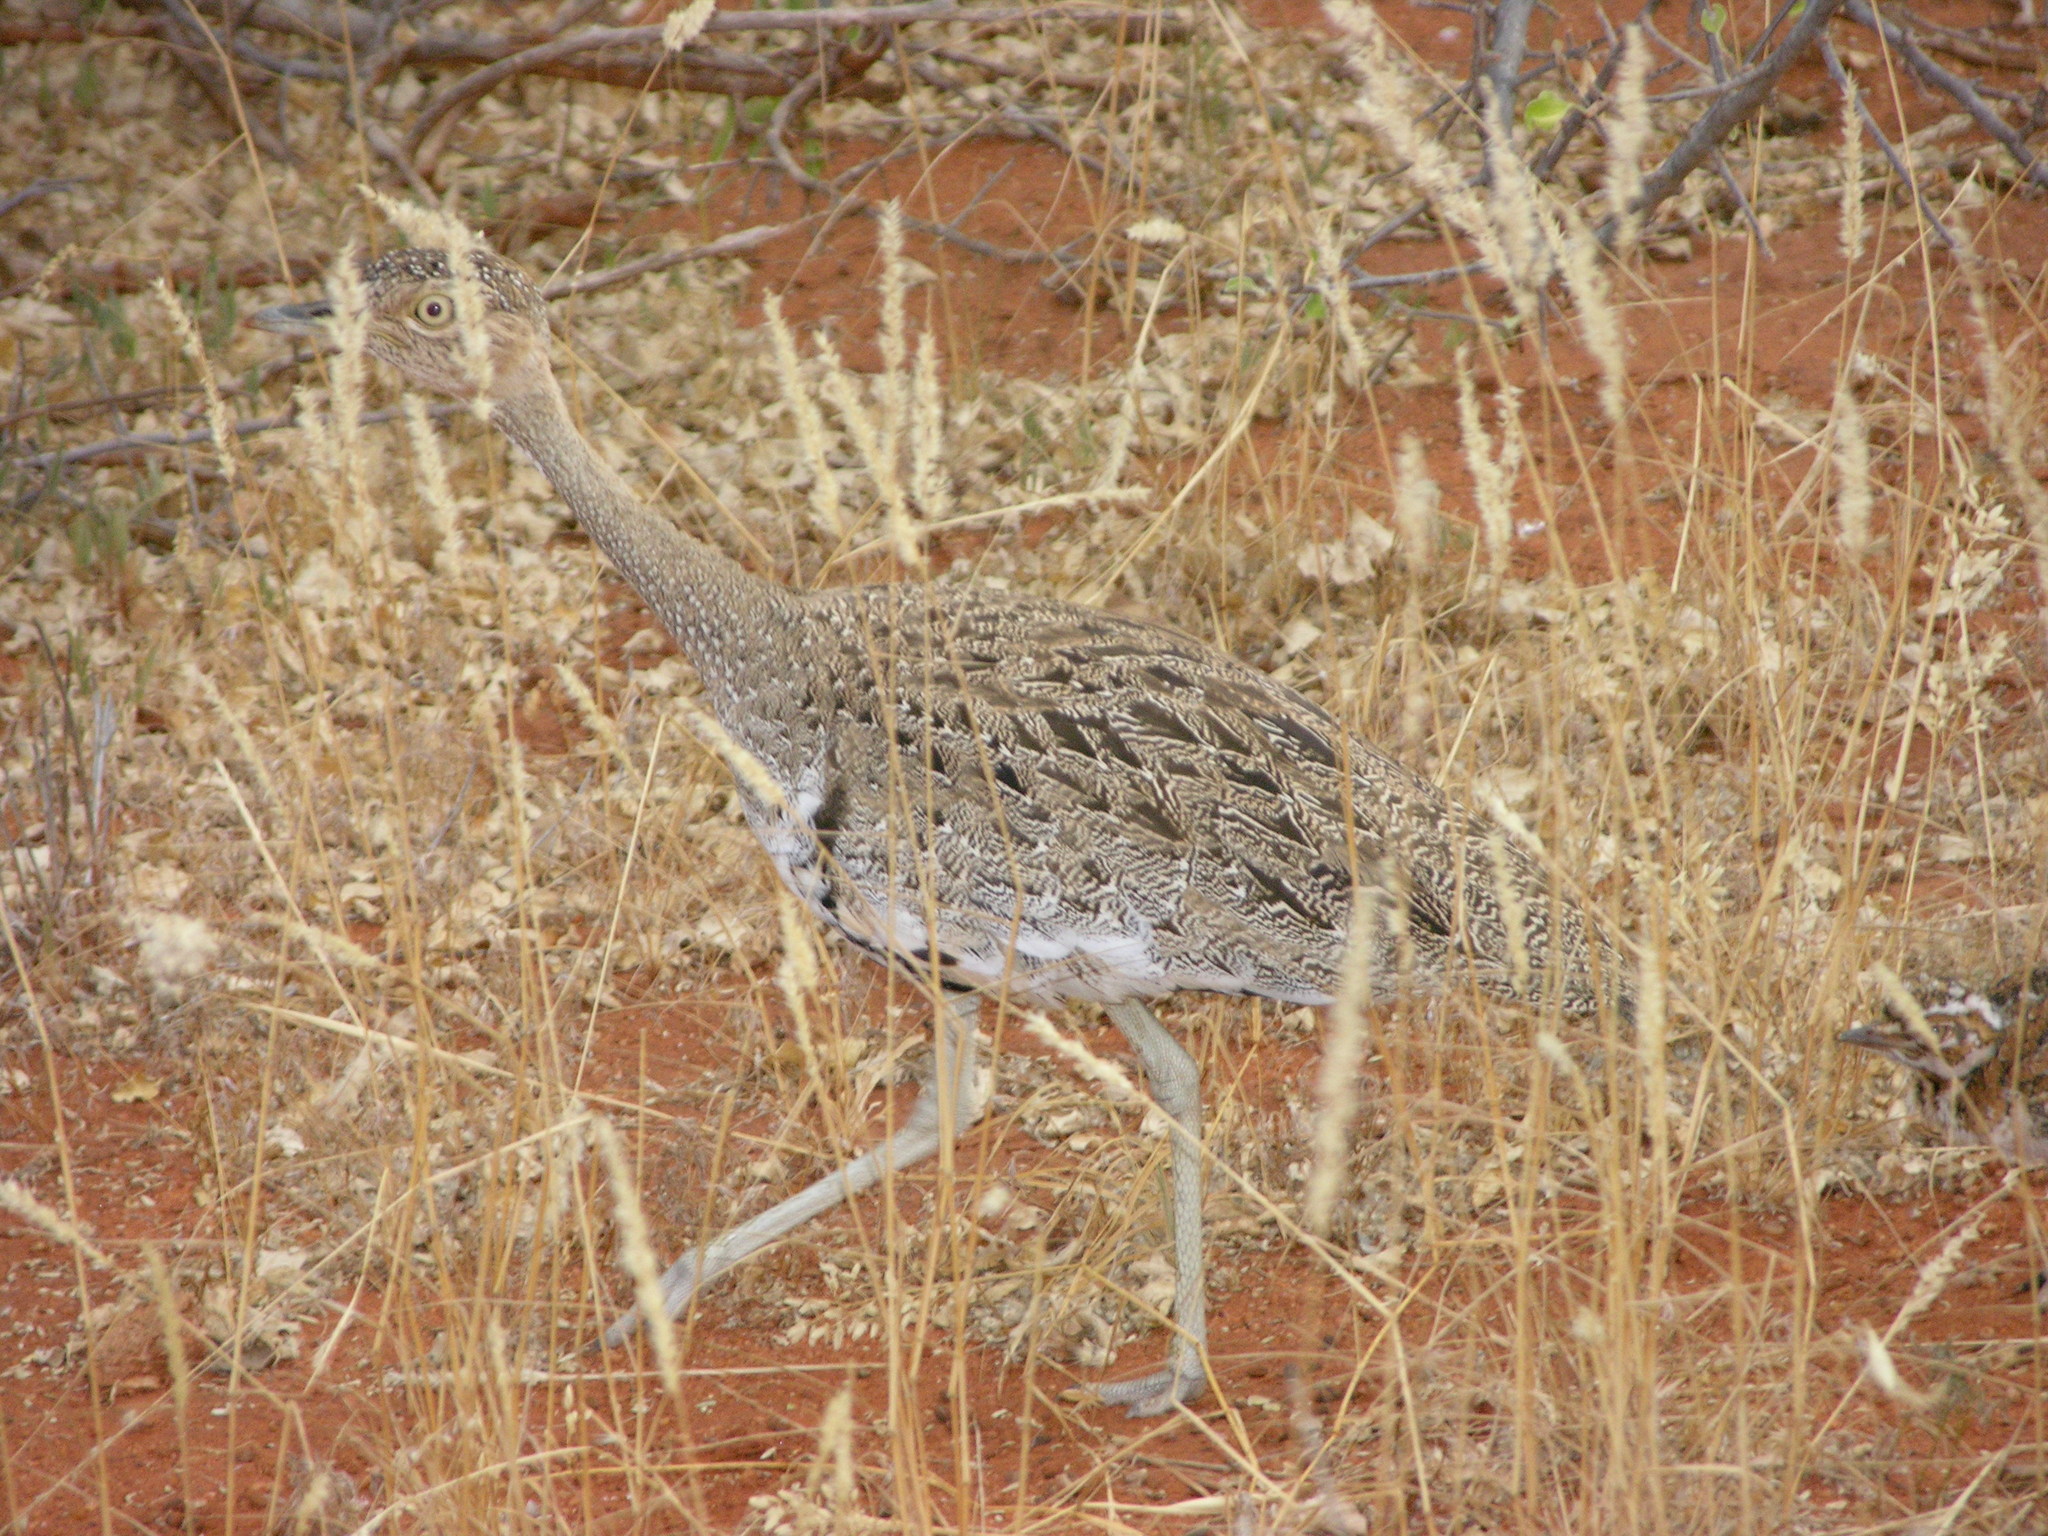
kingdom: Animalia
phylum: Chordata
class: Aves
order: Otidiformes
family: Otididae
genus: Lophotis
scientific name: Lophotis gindiana
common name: Buff-crested bustard
